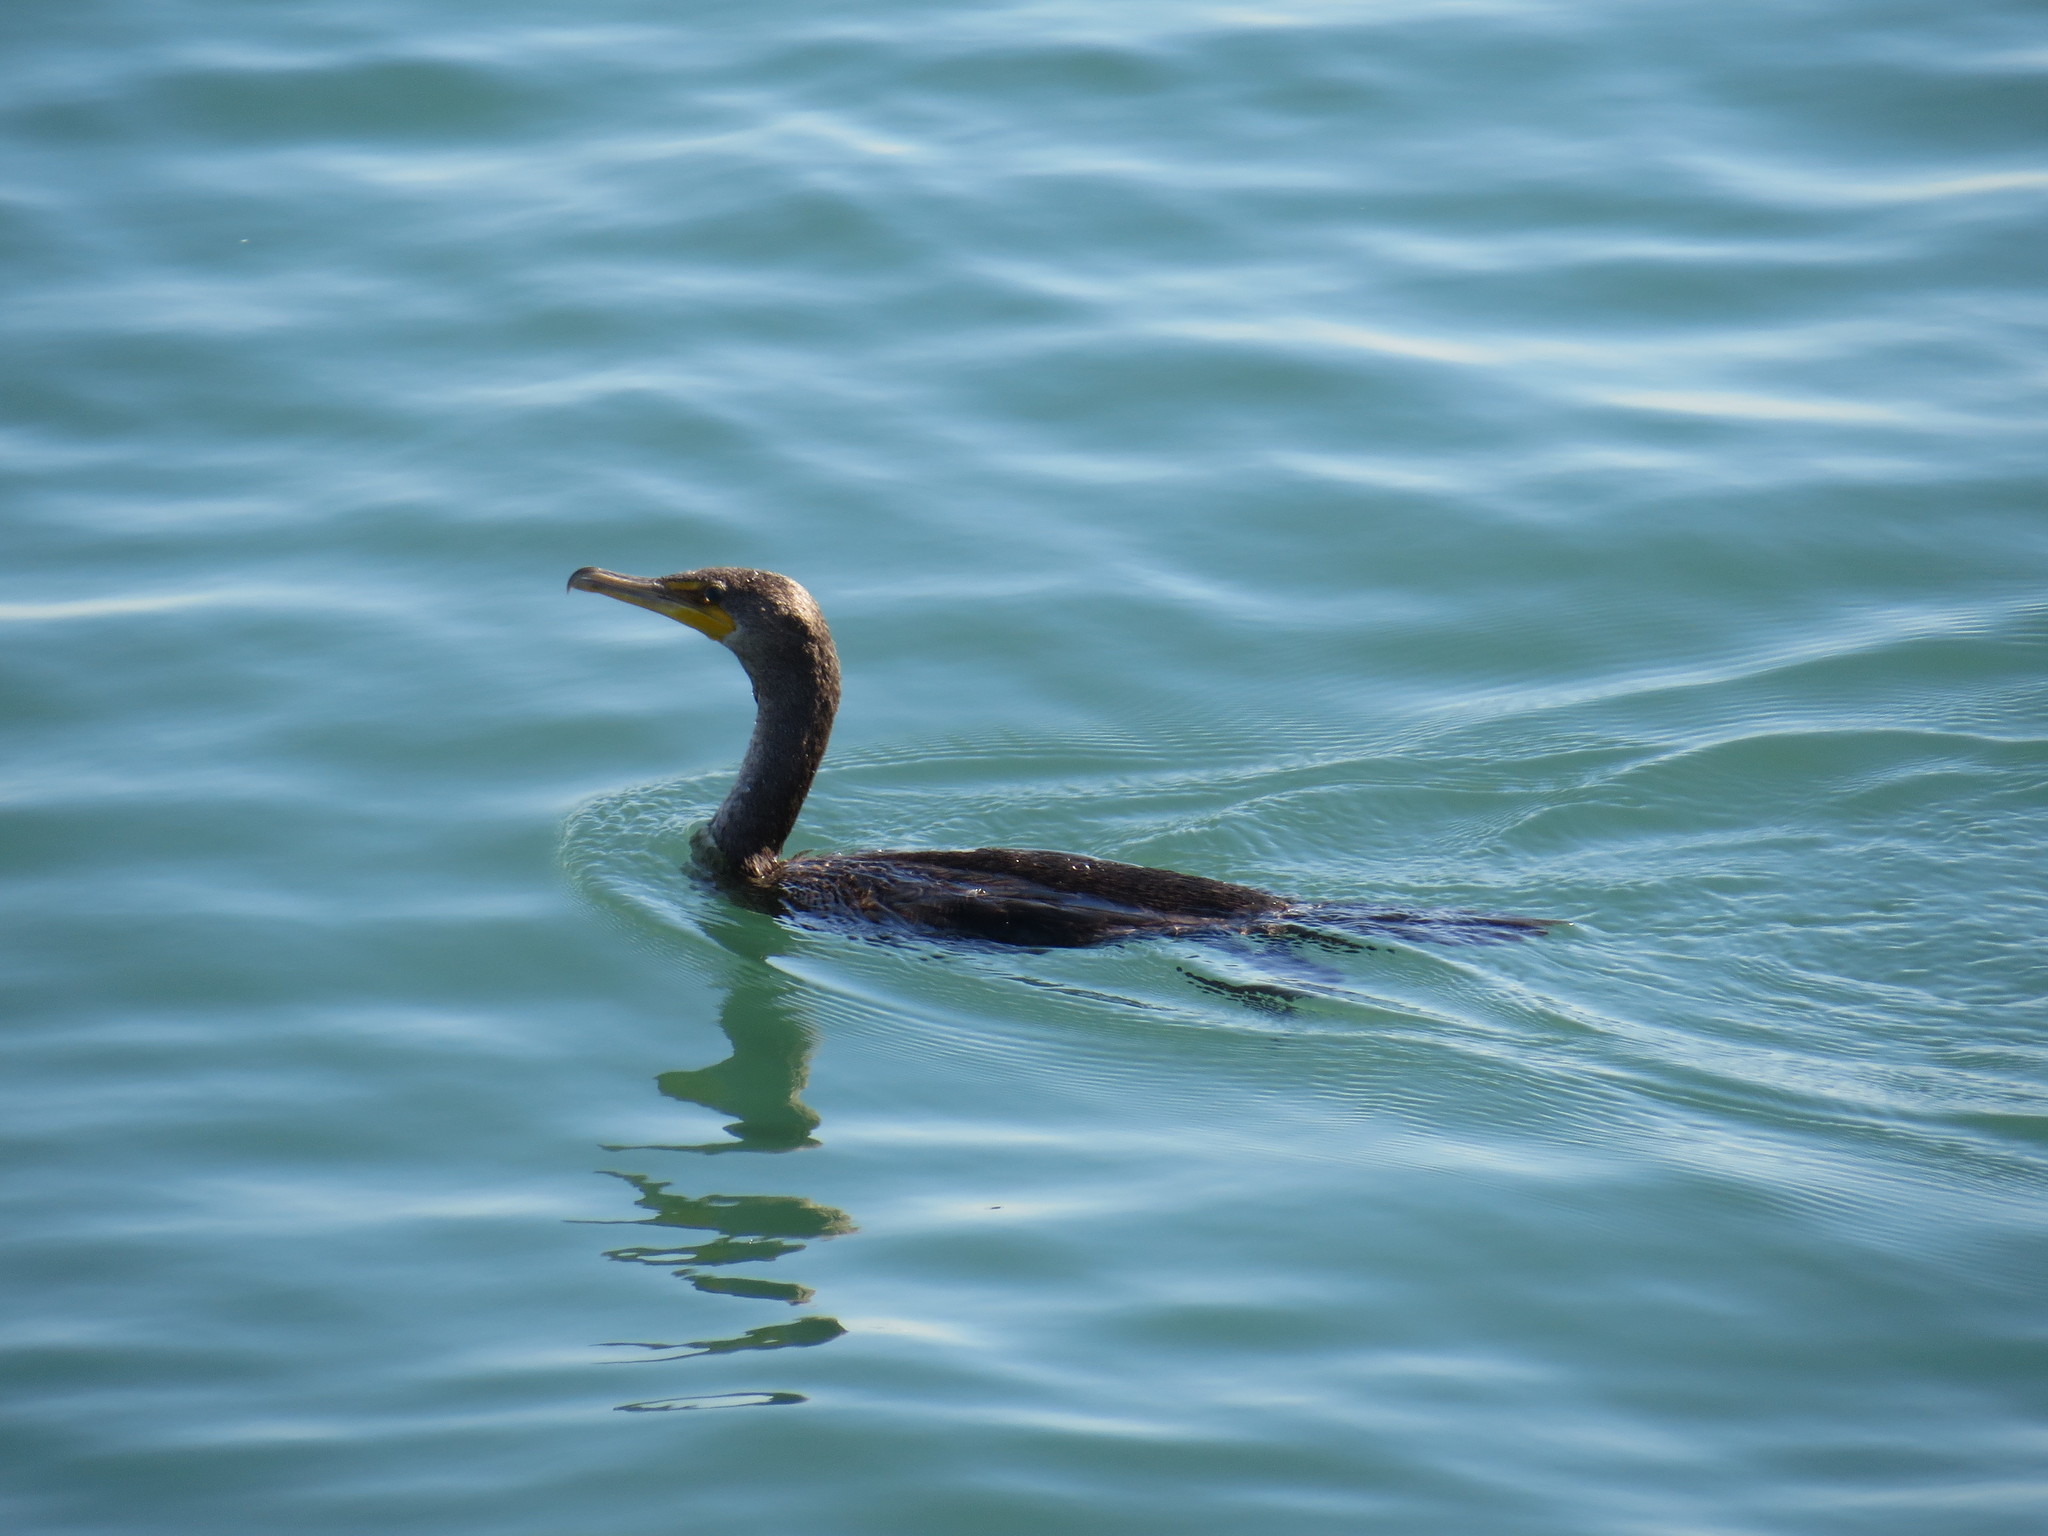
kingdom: Animalia
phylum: Chordata
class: Aves
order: Suliformes
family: Phalacrocoracidae
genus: Phalacrocorax
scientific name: Phalacrocorax auritus
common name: Double-crested cormorant
